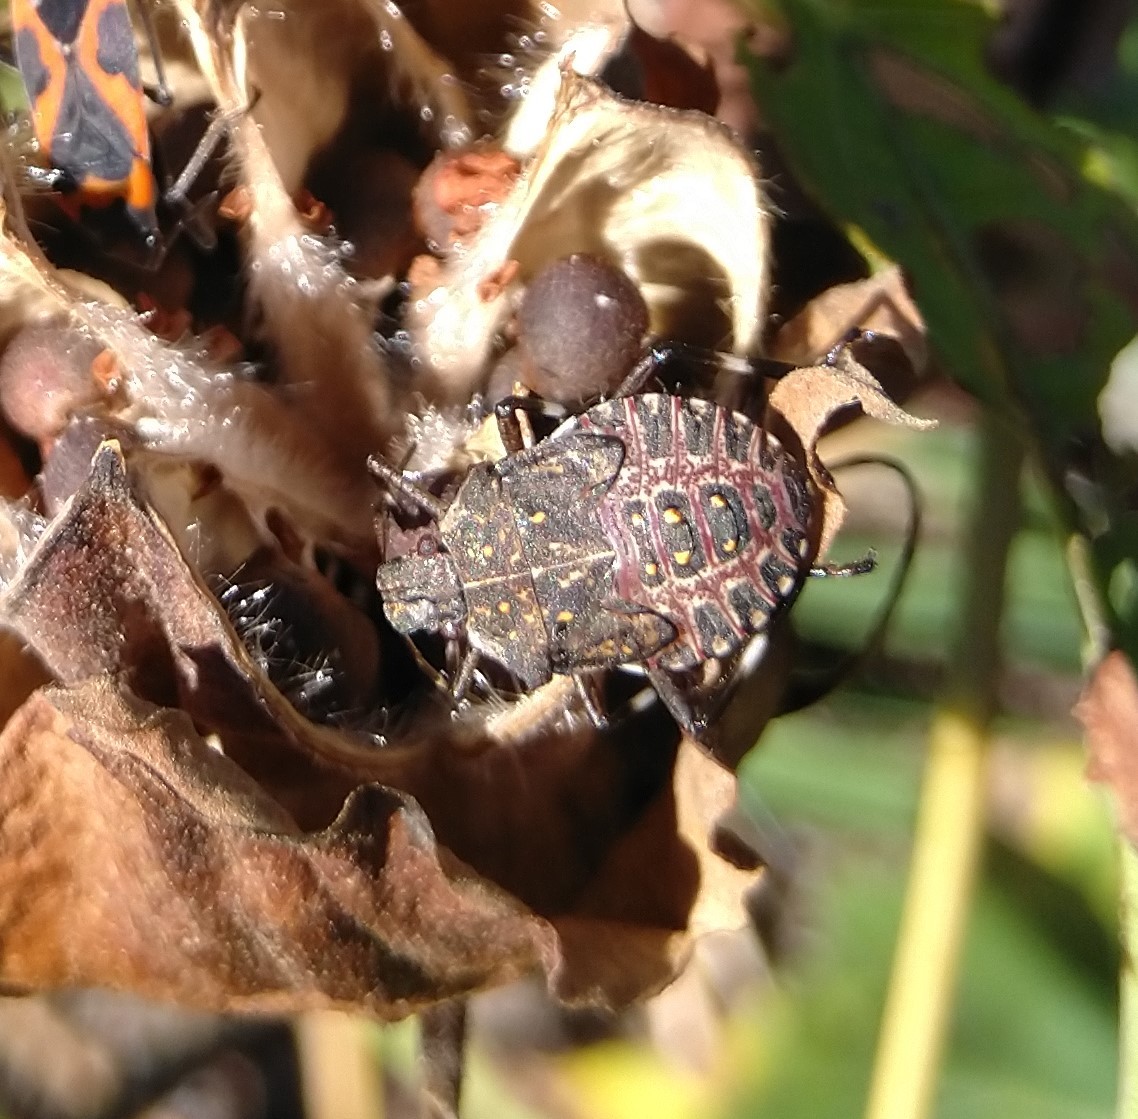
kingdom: Animalia
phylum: Arthropoda
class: Insecta
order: Hemiptera
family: Pentatomidae
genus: Halyomorpha
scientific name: Halyomorpha halys
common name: Brown marmorated stink bug
